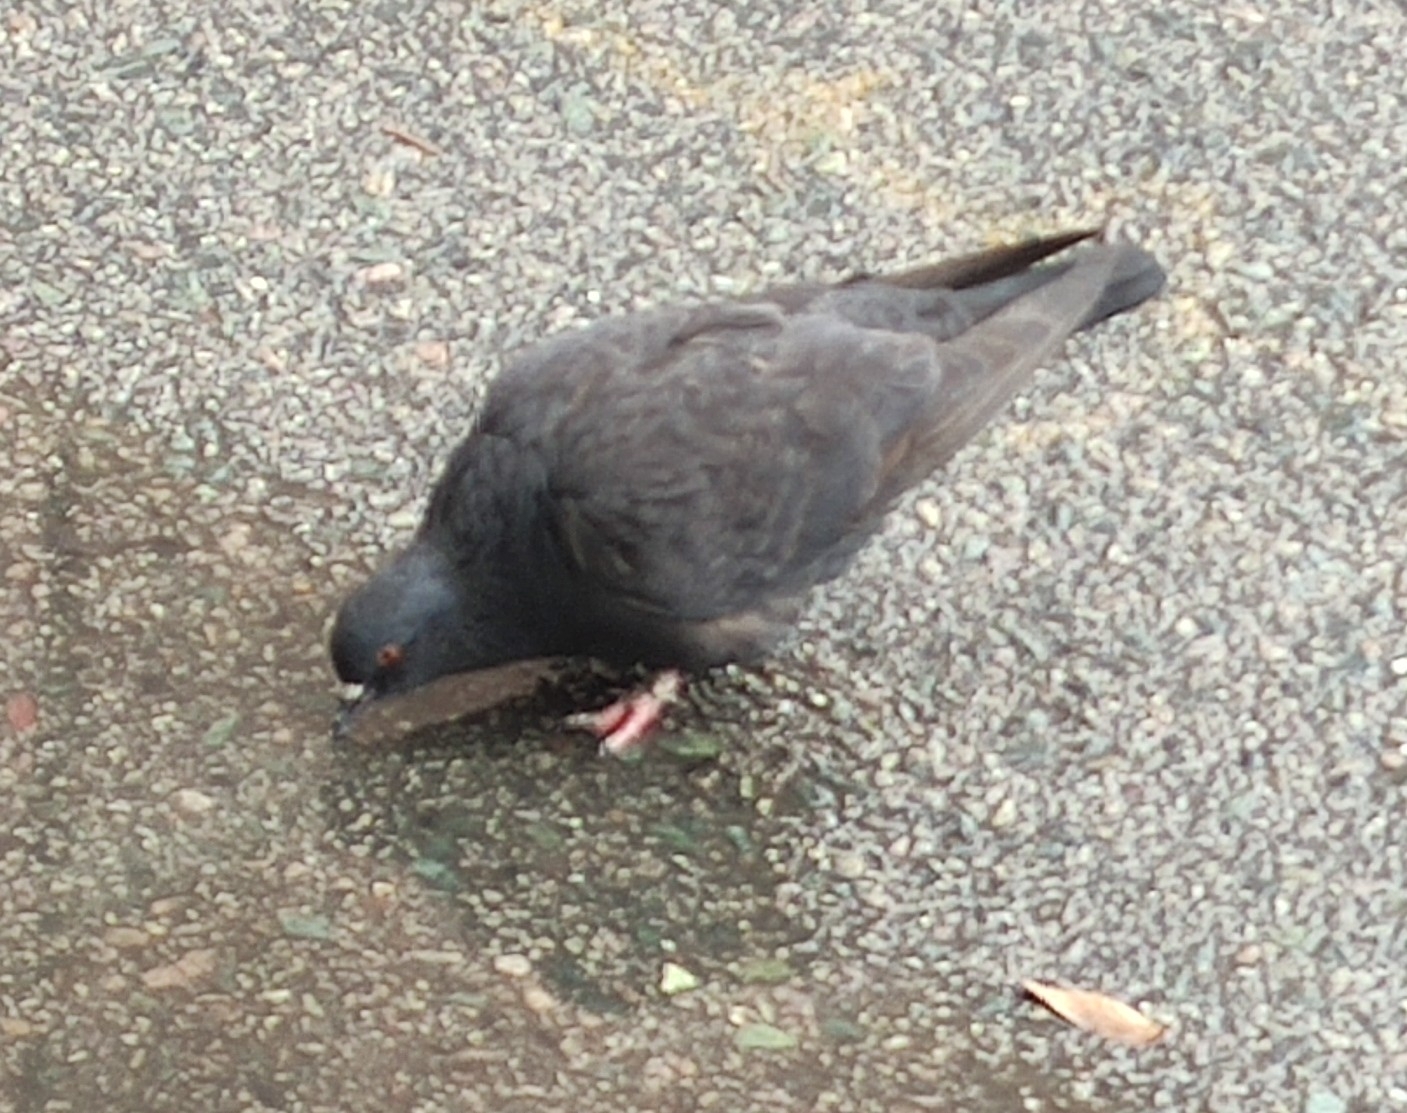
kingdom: Animalia
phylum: Chordata
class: Aves
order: Columbiformes
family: Columbidae
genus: Columba
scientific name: Columba livia
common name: Rock pigeon
